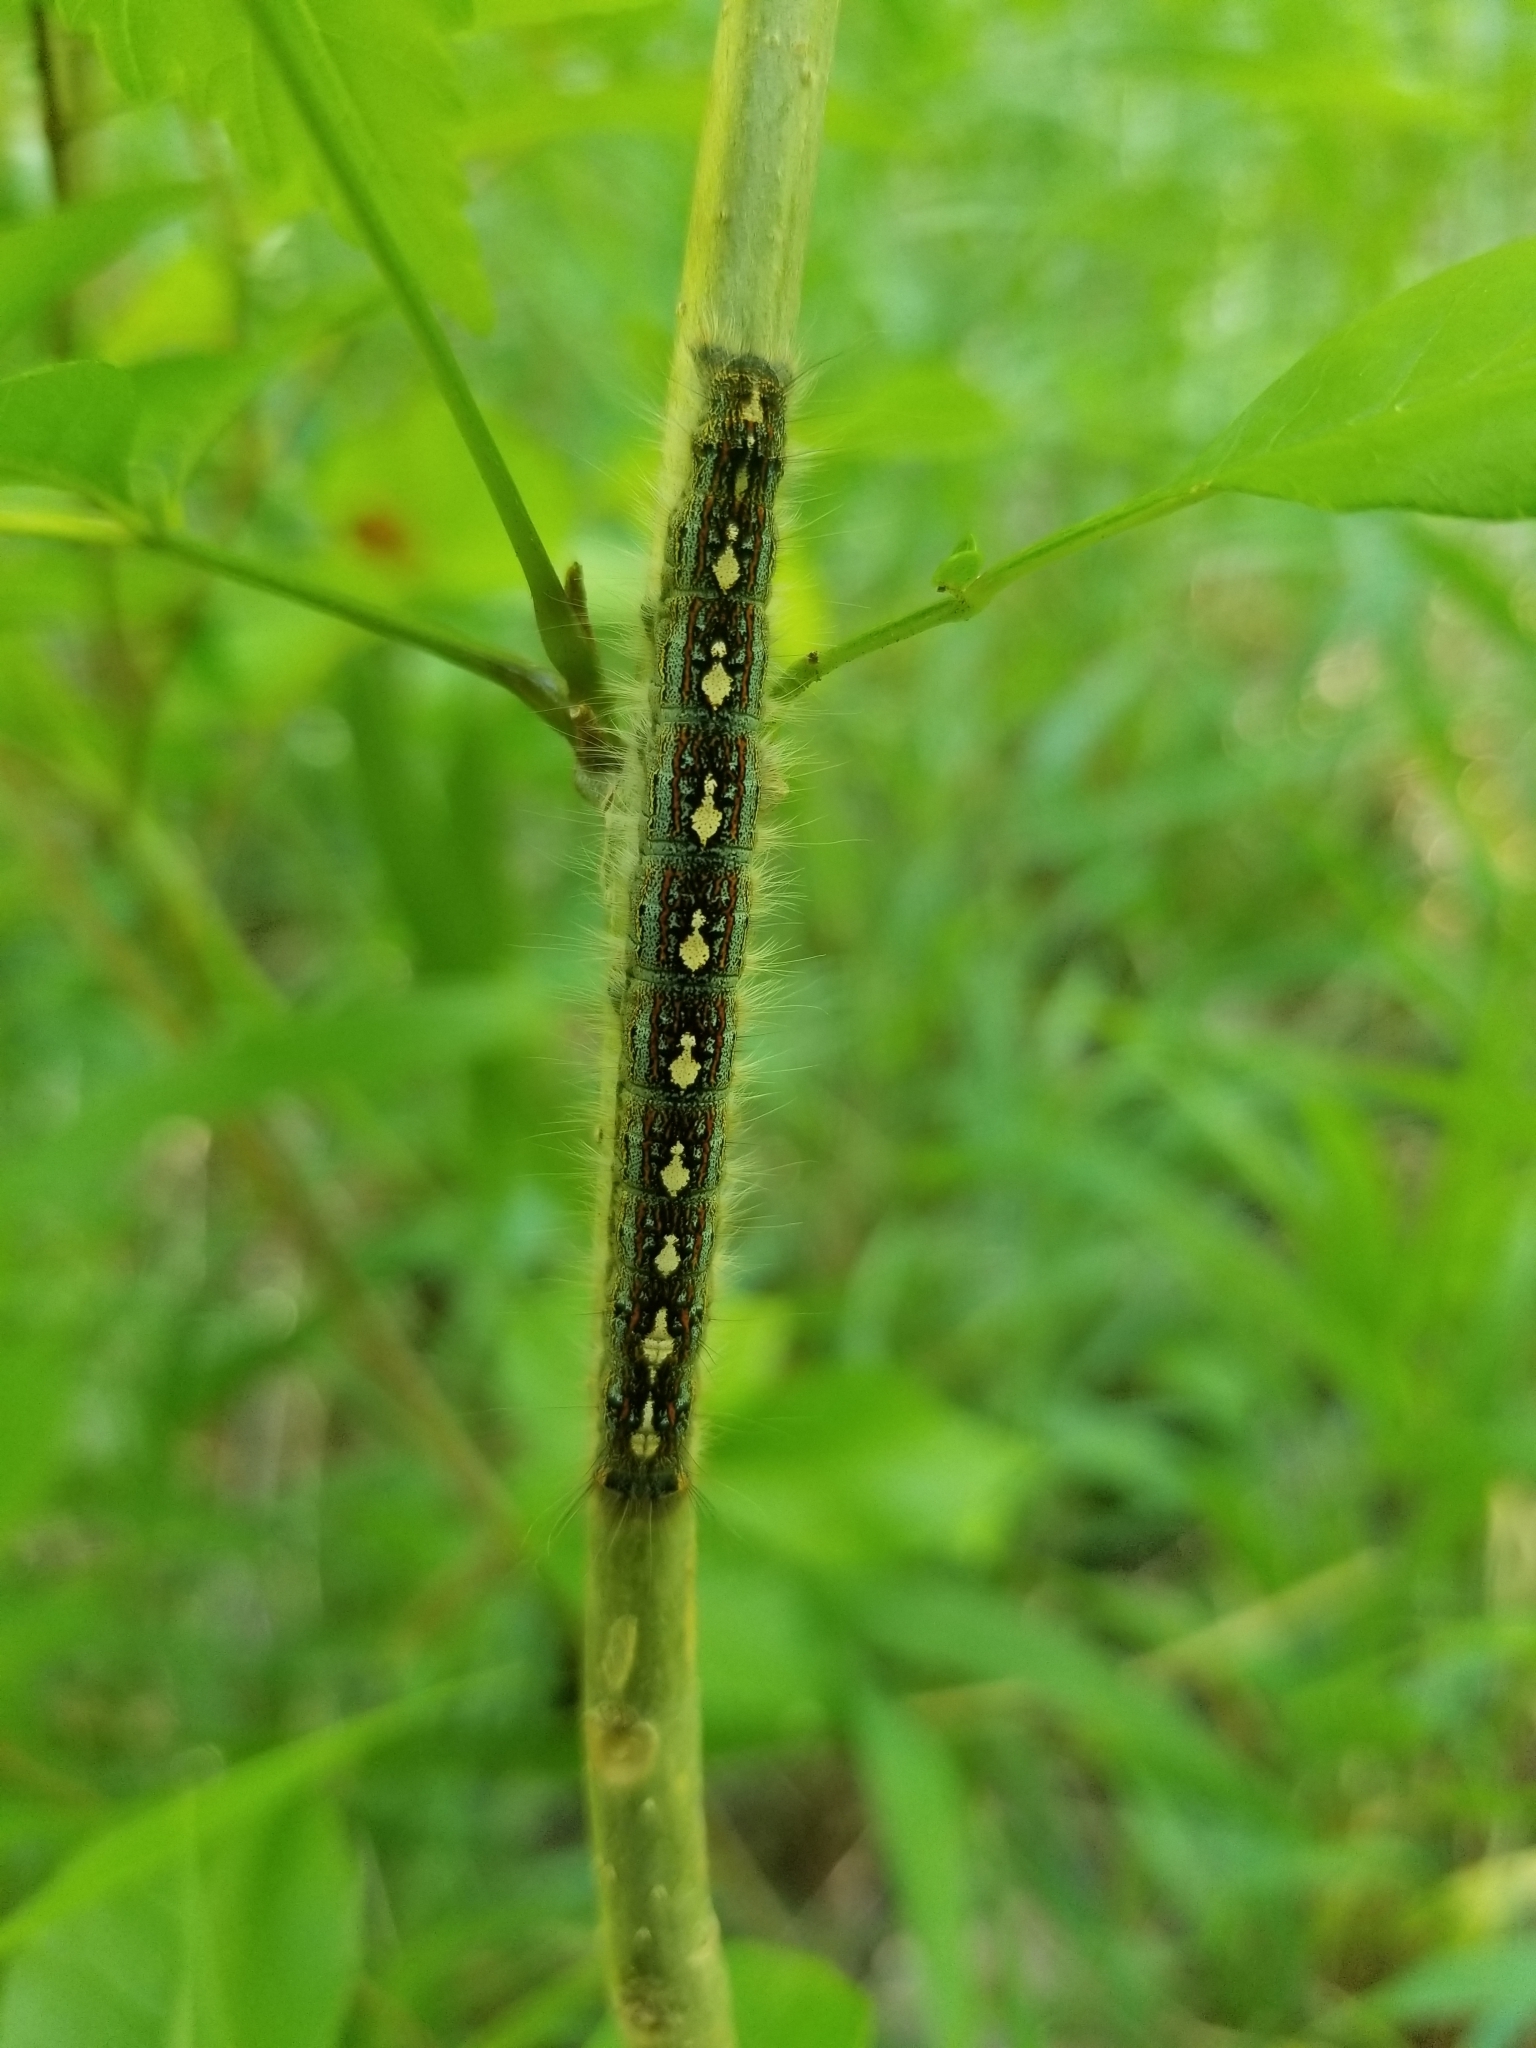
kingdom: Animalia
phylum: Arthropoda
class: Insecta
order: Lepidoptera
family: Lasiocampidae
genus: Malacosoma
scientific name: Malacosoma disstria
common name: Forest tent caterpillar
